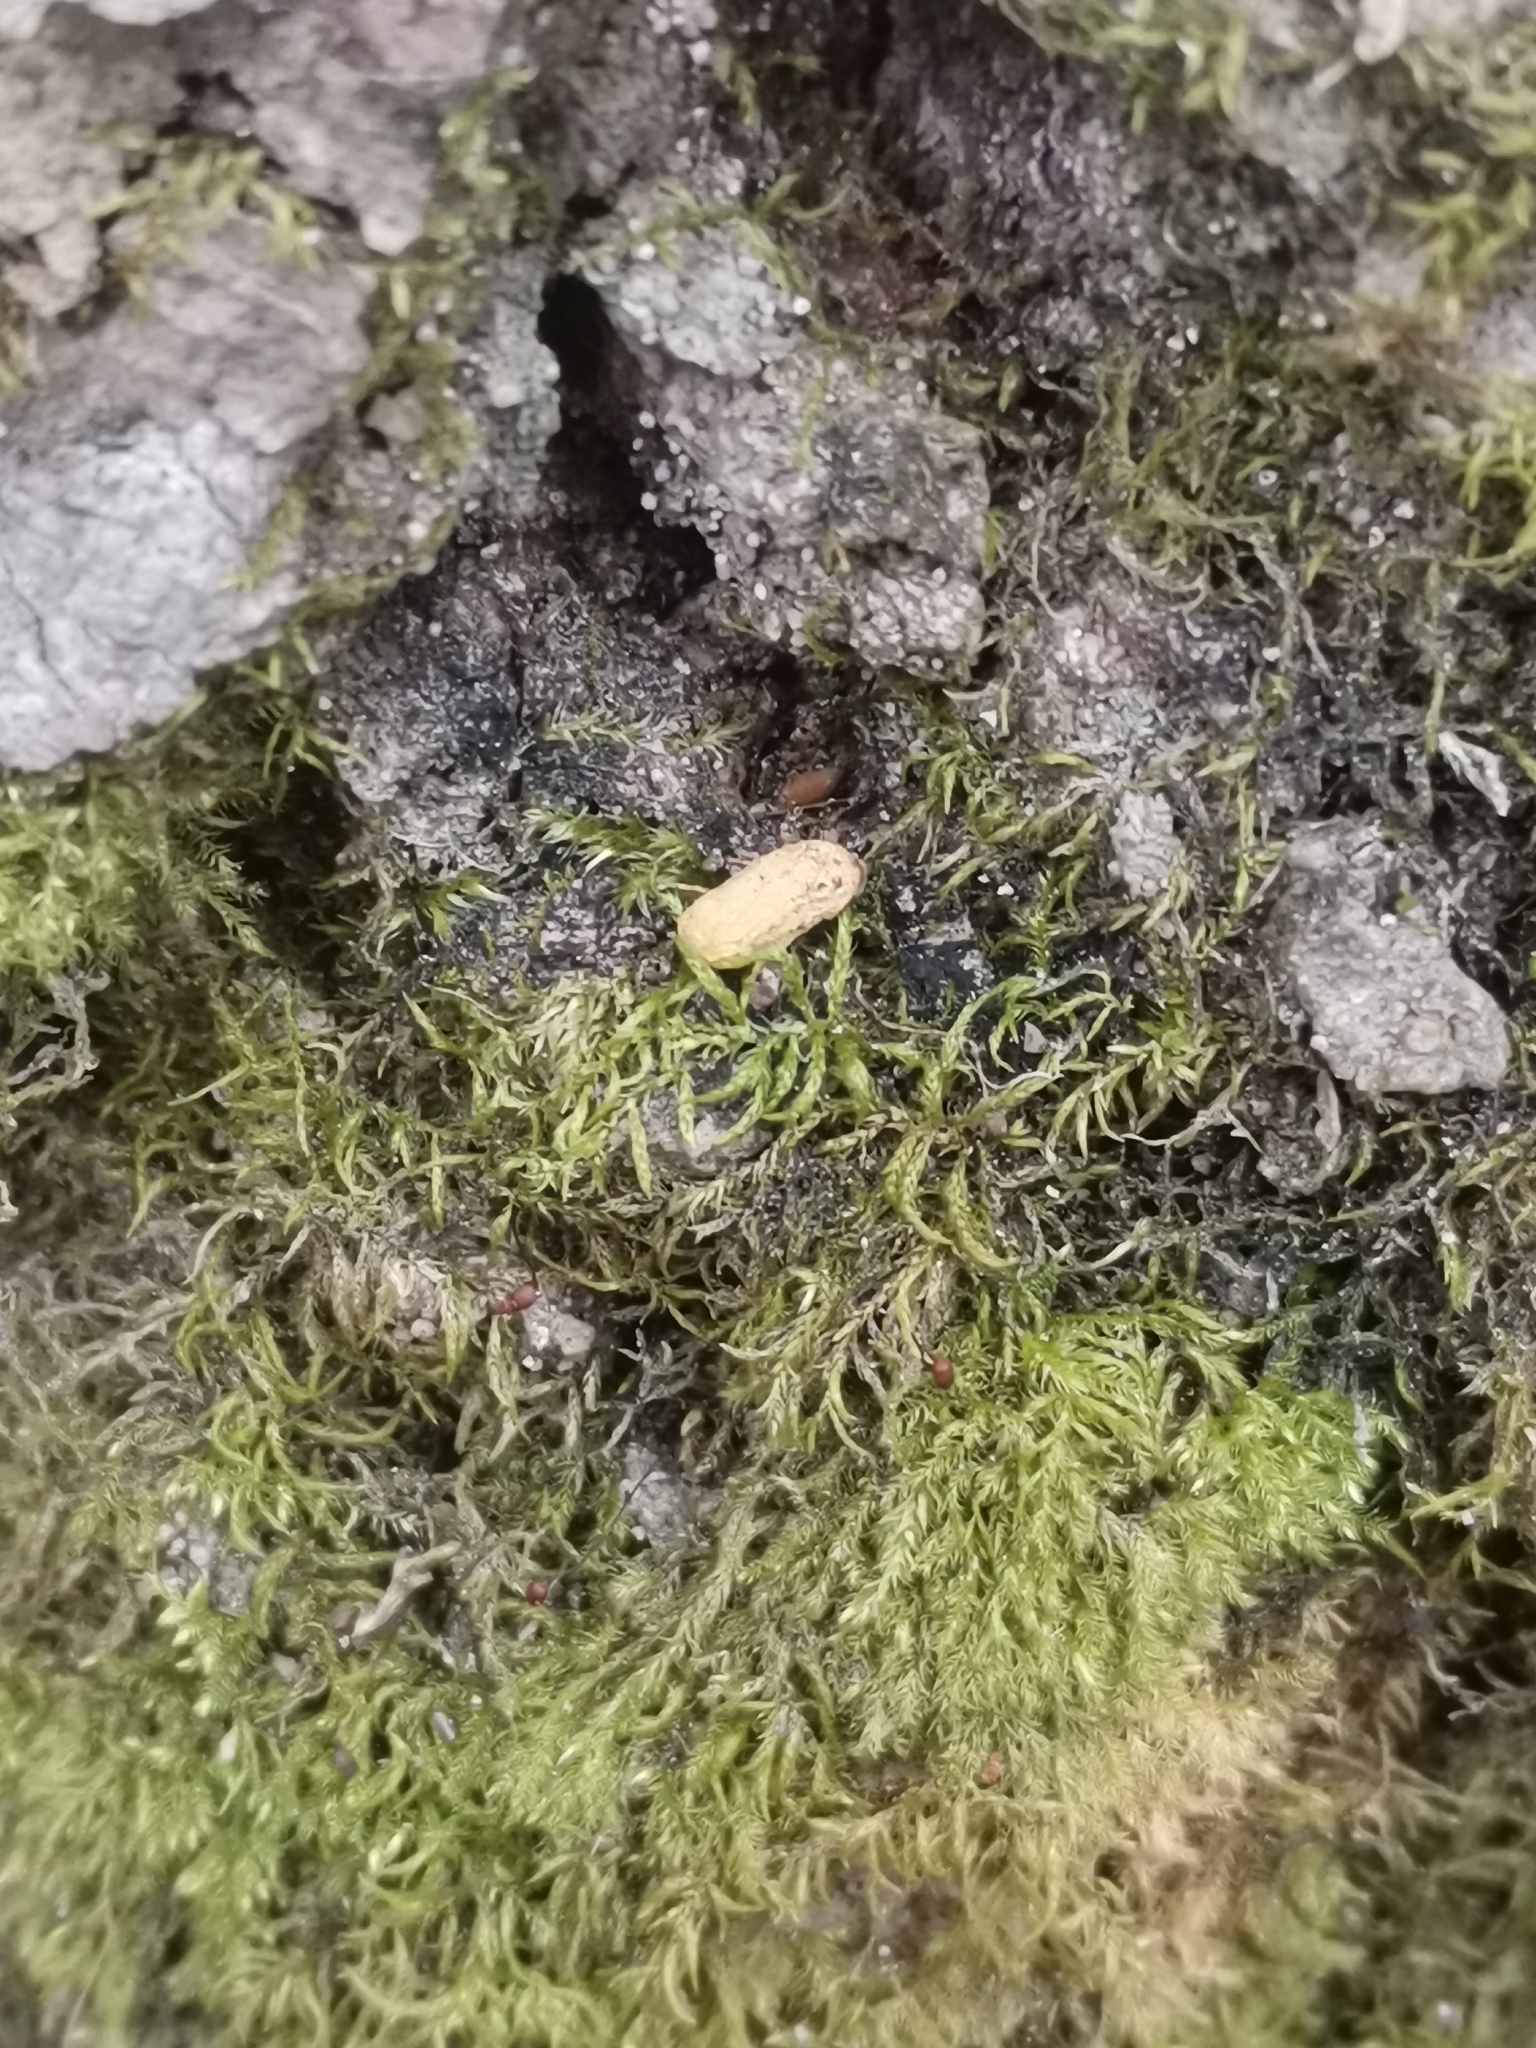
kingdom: Animalia
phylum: Chordata
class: Mammalia
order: Rodentia
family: Sciuridae
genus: Pteromys
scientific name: Pteromys volans
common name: Siberian flying squirrel
